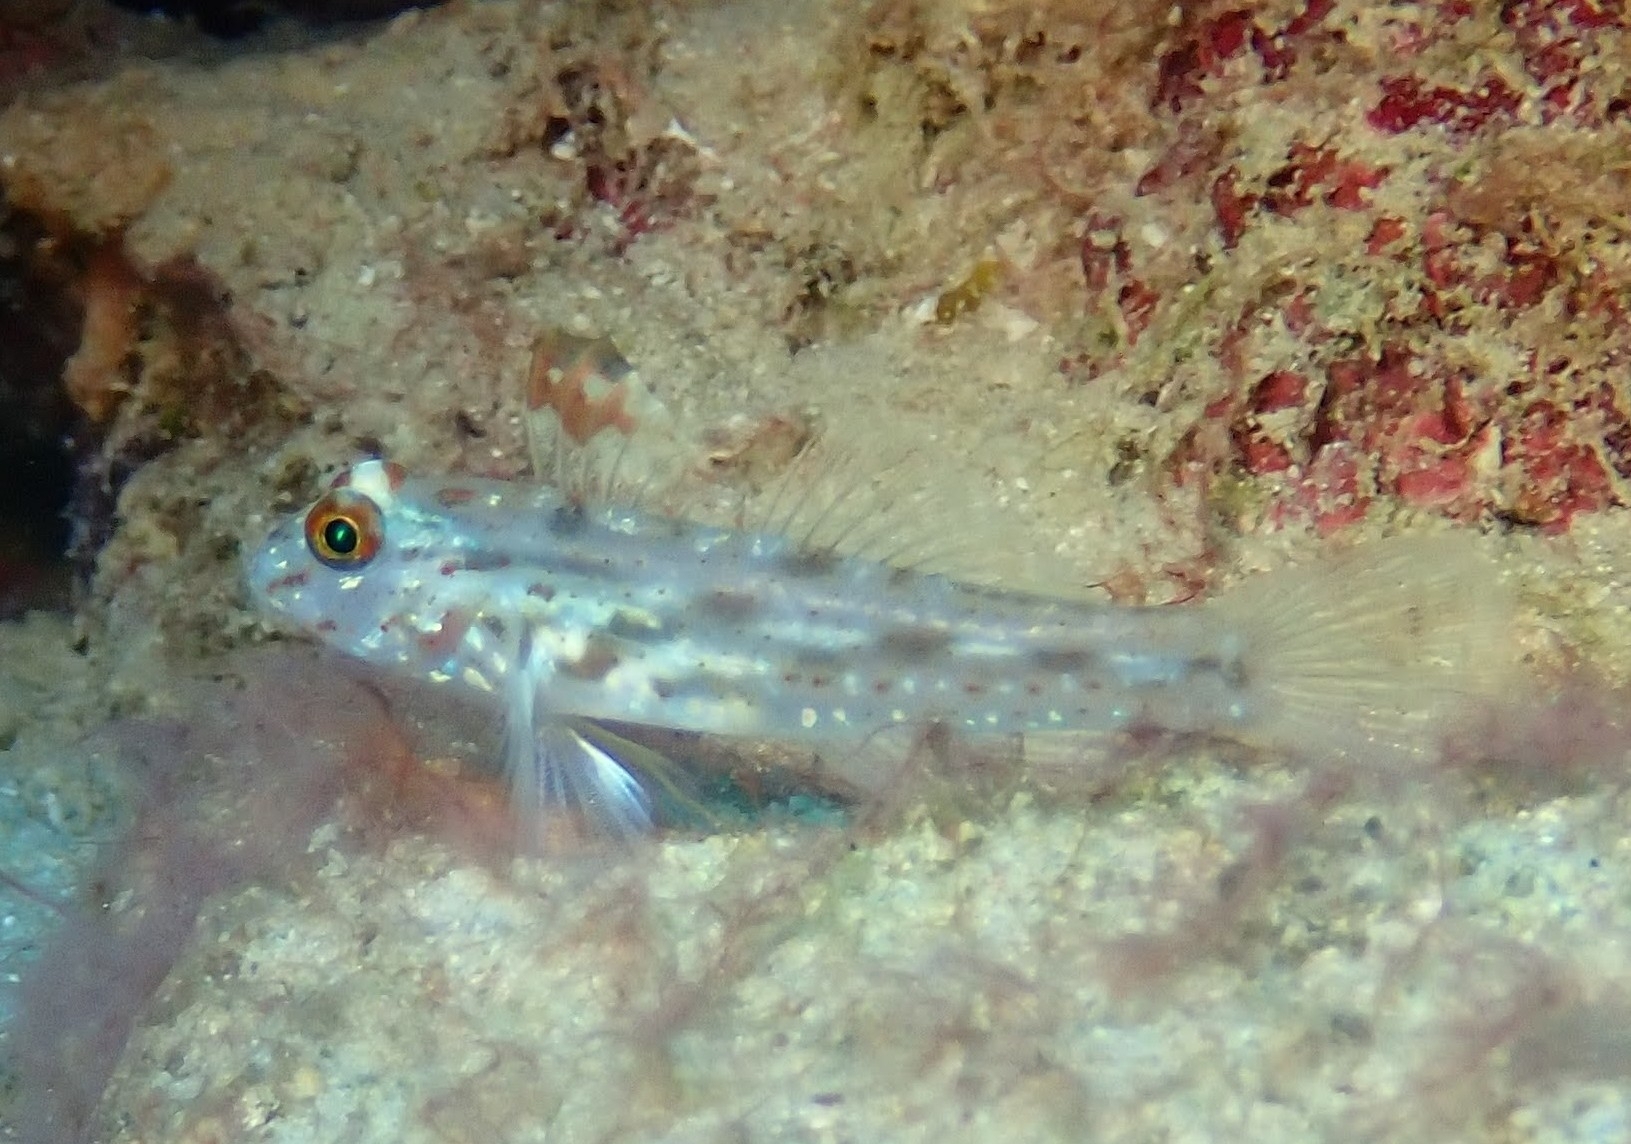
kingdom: Animalia
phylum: Chordata
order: Perciformes
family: Gobiidae
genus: Fusigobius
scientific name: Fusigobius signipinnis
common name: Flasher sand-goby
